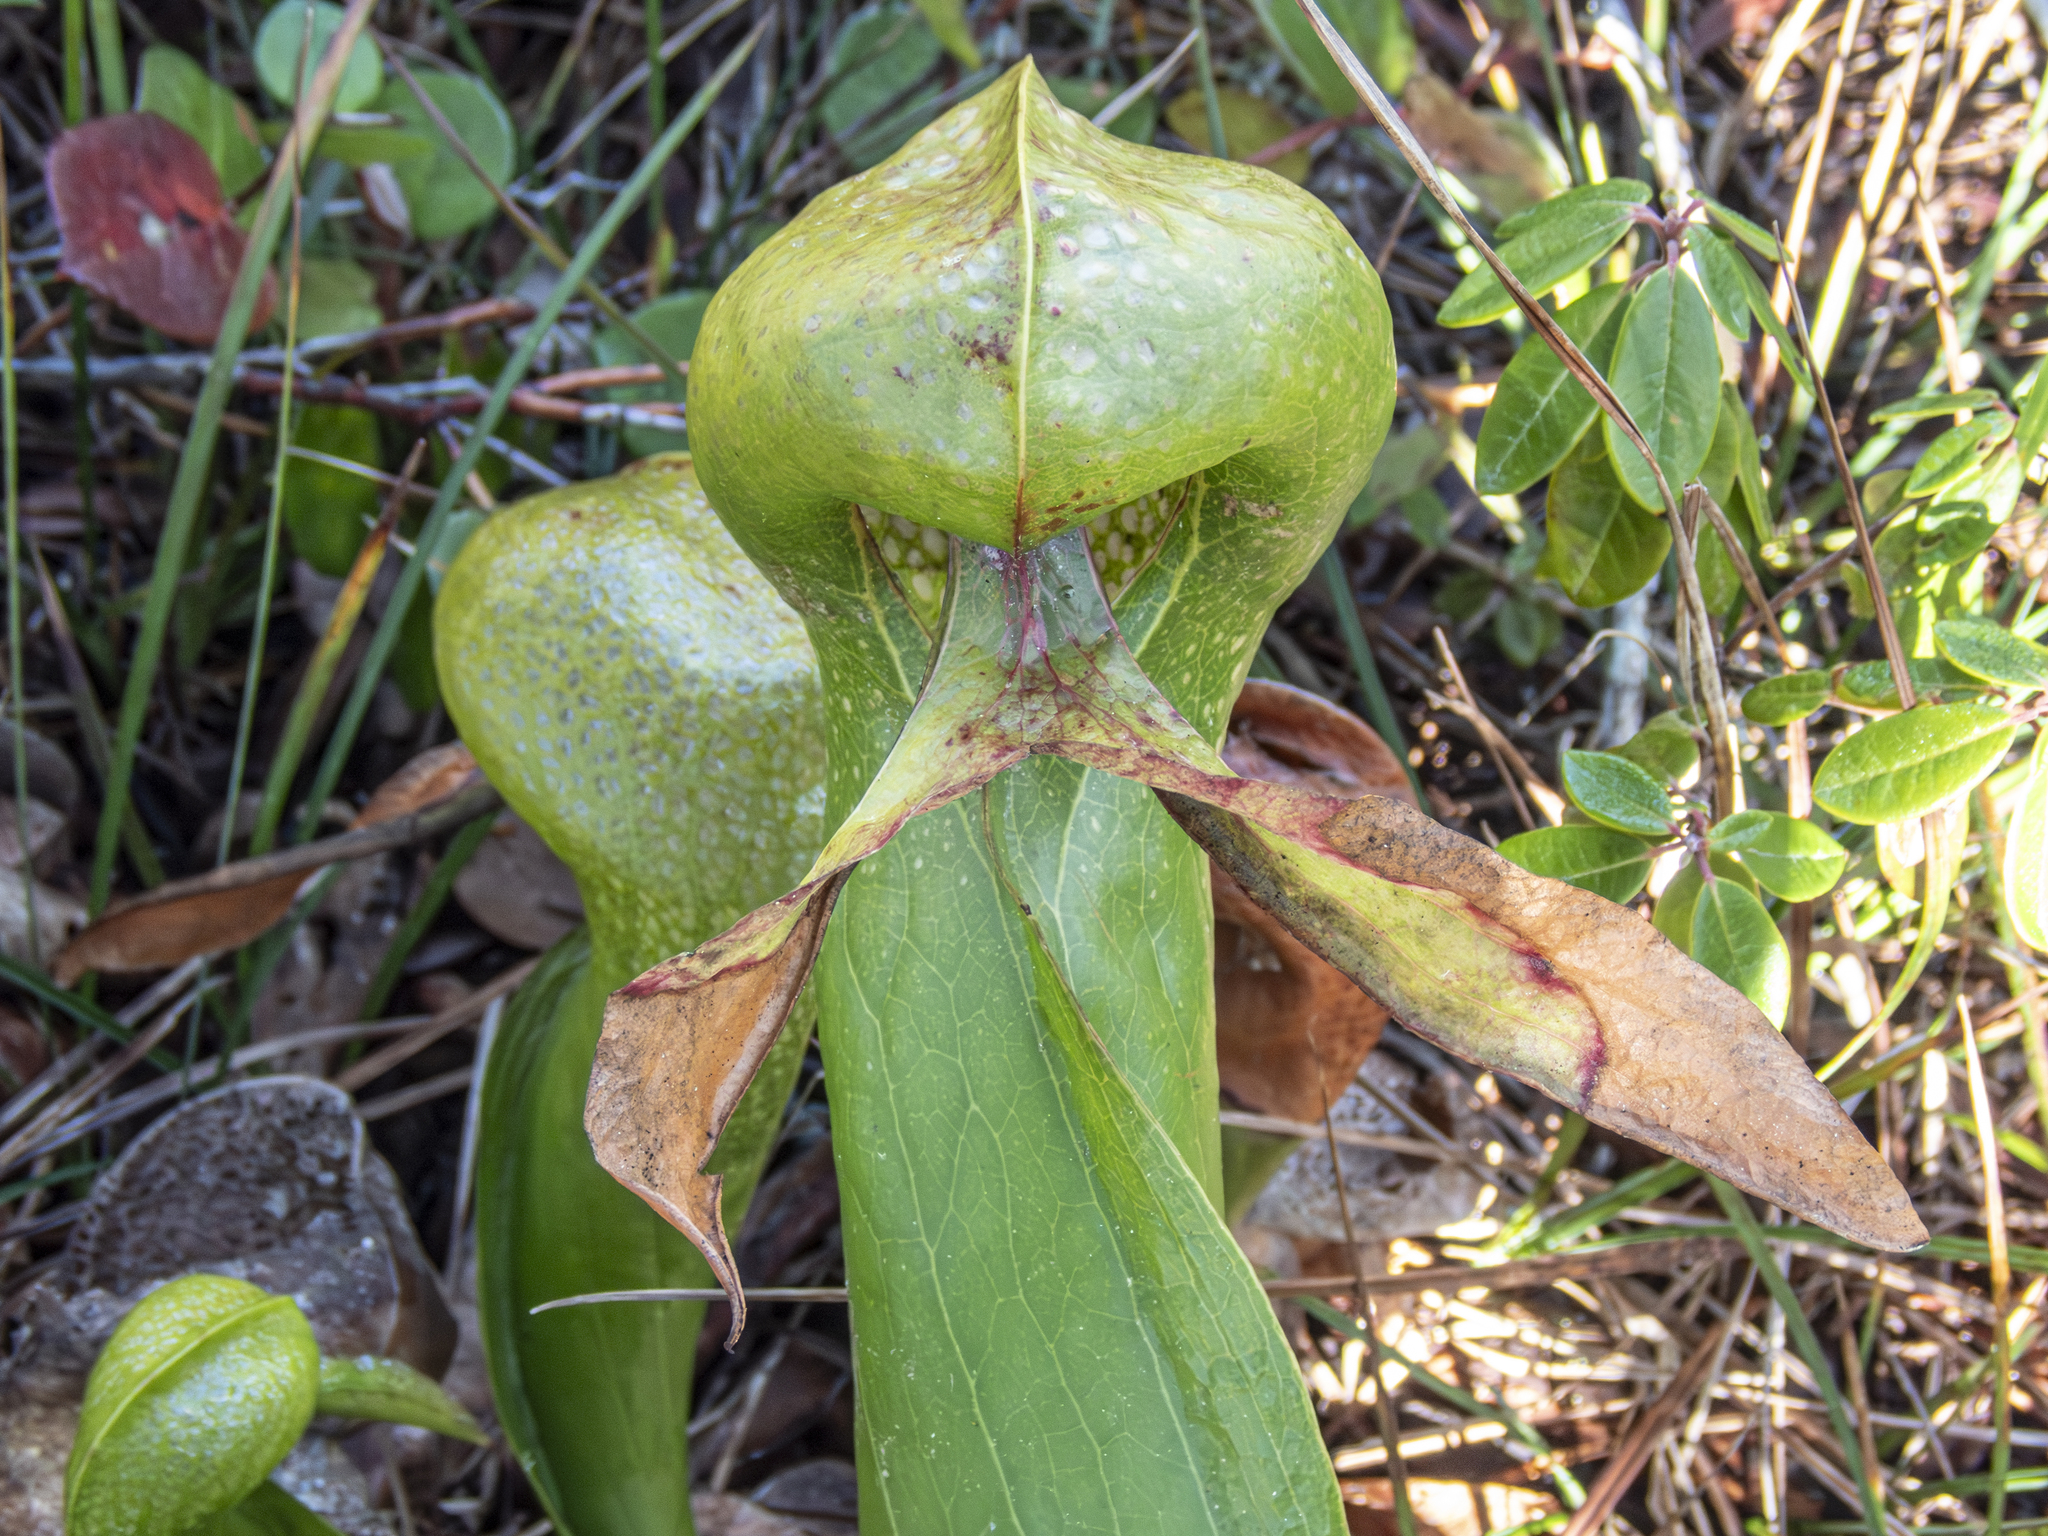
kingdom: Plantae
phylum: Tracheophyta
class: Magnoliopsida
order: Ericales
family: Sarraceniaceae
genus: Darlingtonia
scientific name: Darlingtonia californica
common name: California pitcher plant
